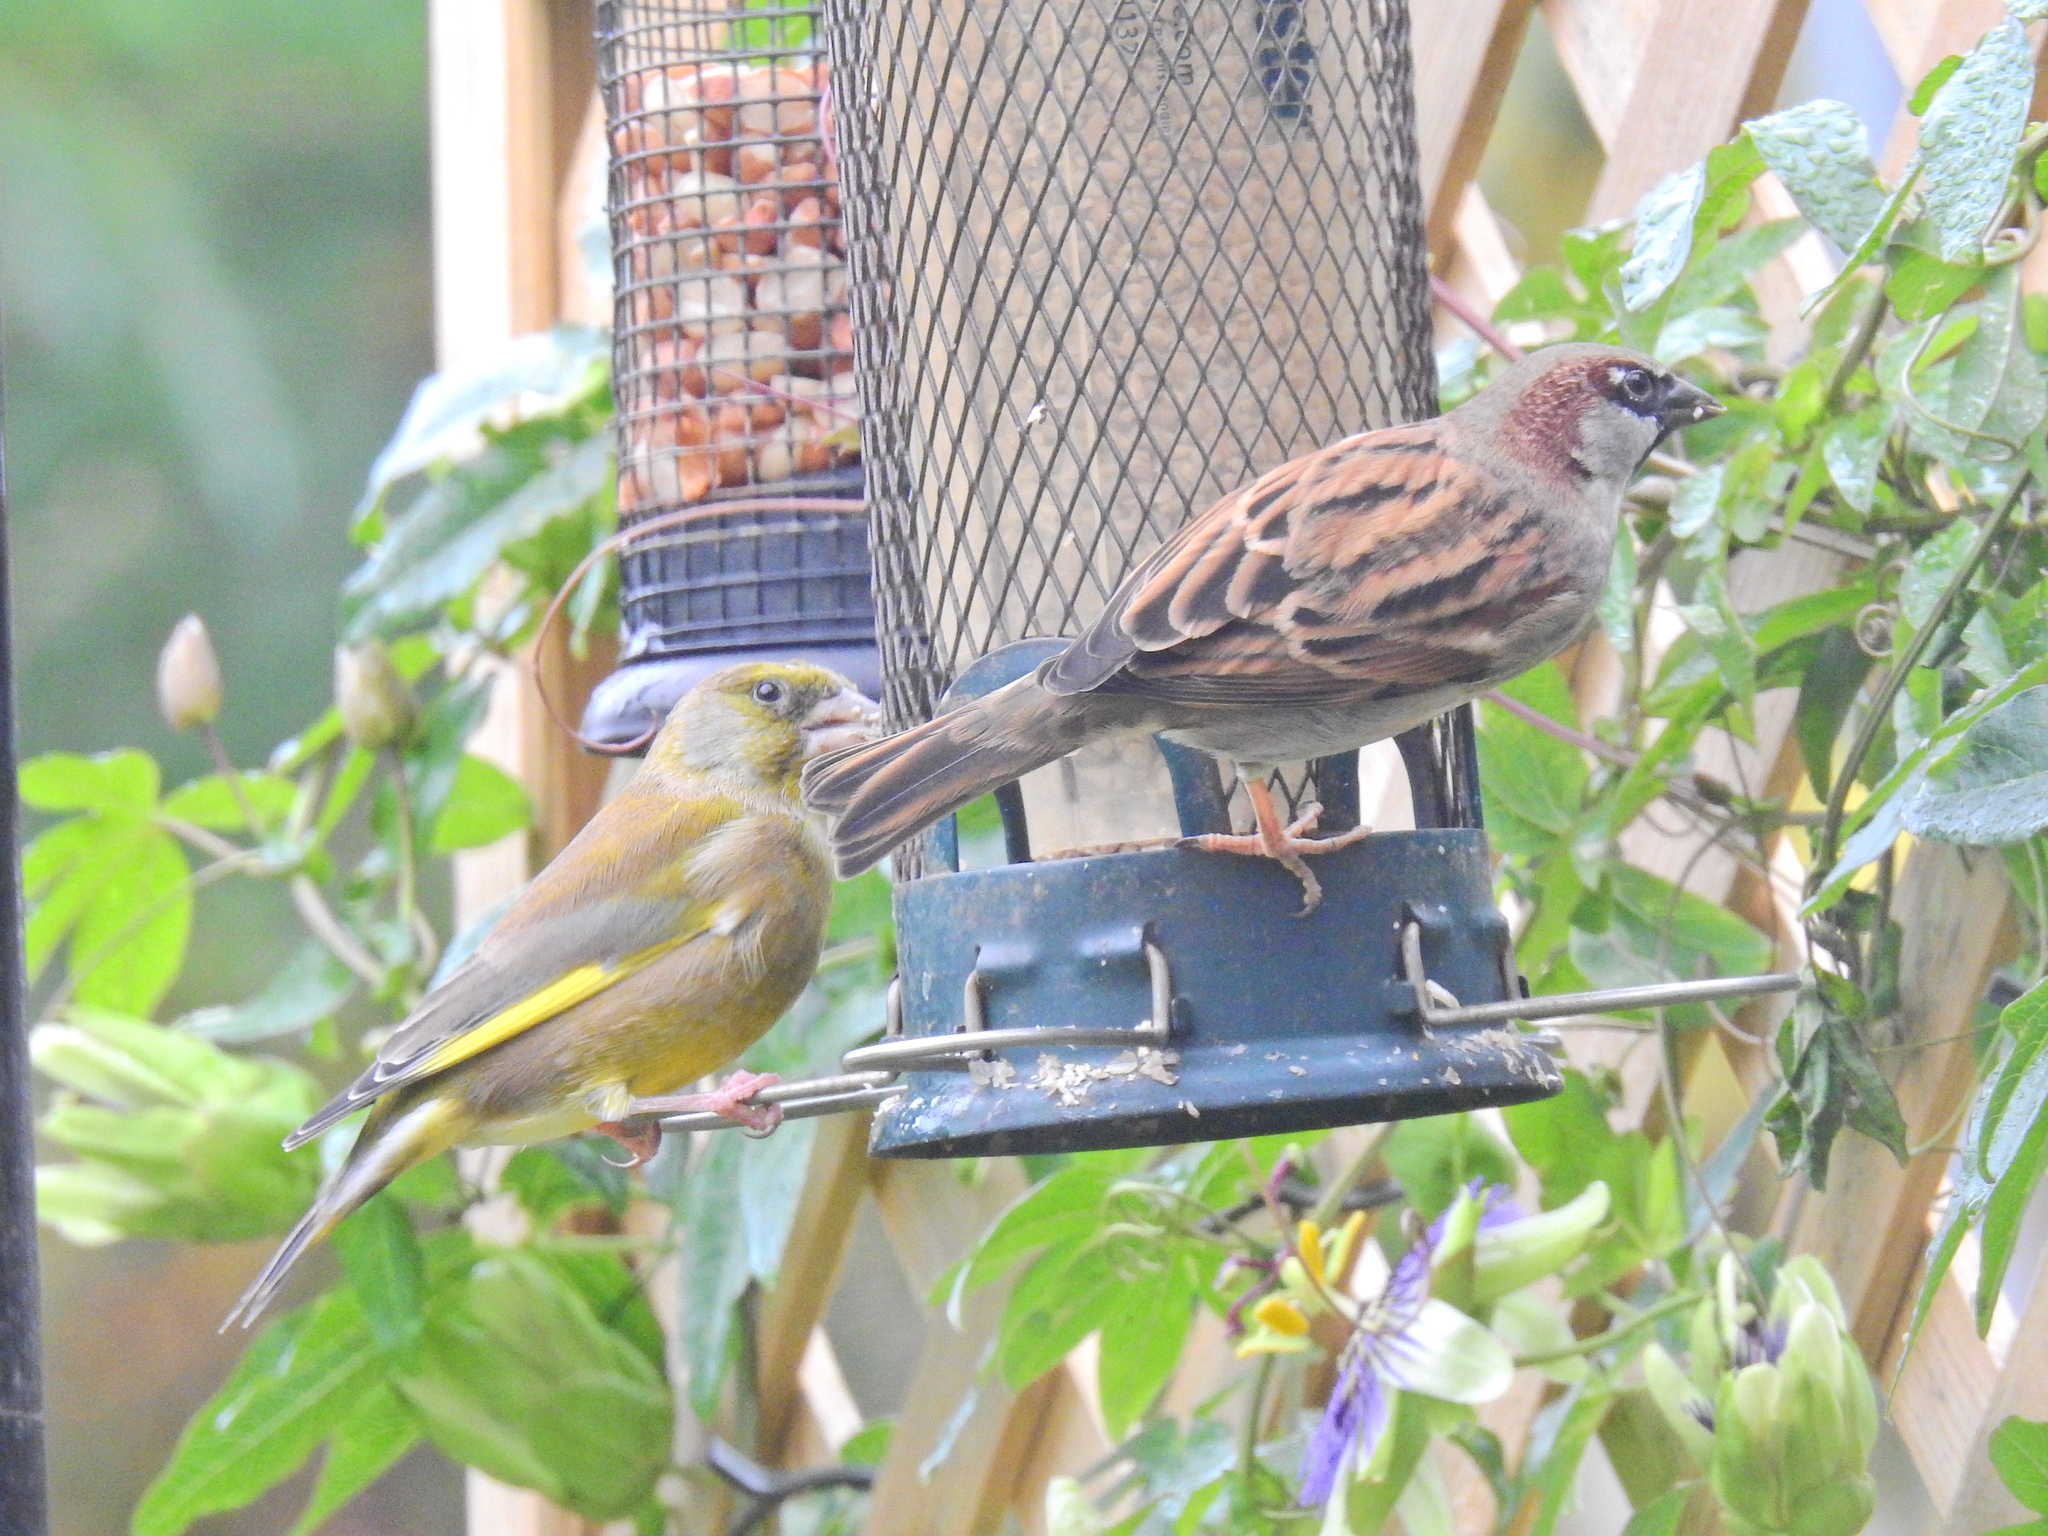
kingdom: Animalia
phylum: Chordata
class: Aves
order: Passeriformes
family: Passeridae
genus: Passer
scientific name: Passer domesticus
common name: House sparrow
